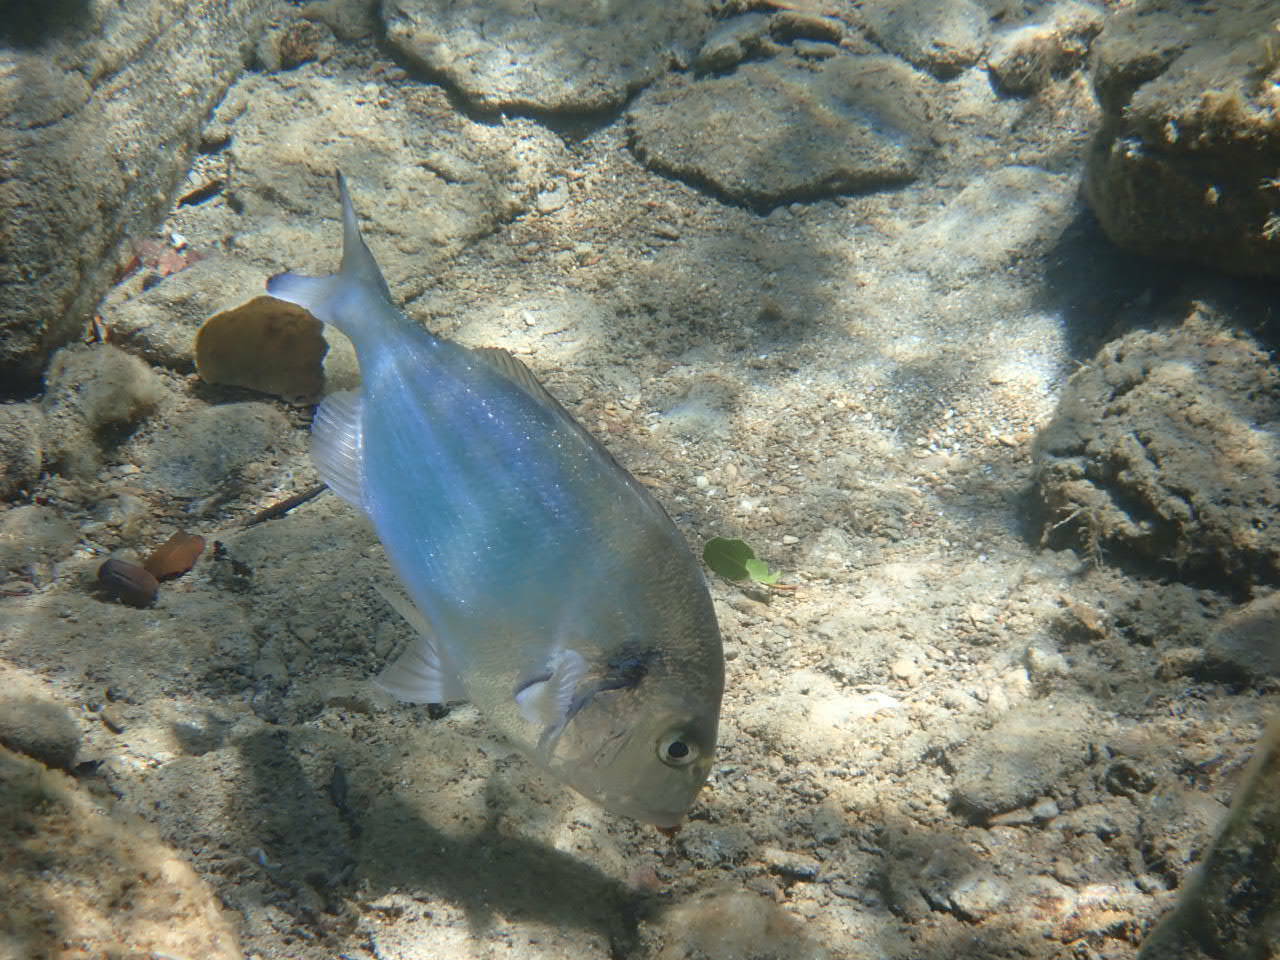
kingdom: Animalia
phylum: Chordata
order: Perciformes
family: Sparidae
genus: Sparus
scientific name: Sparus aurata
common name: Gilthead
